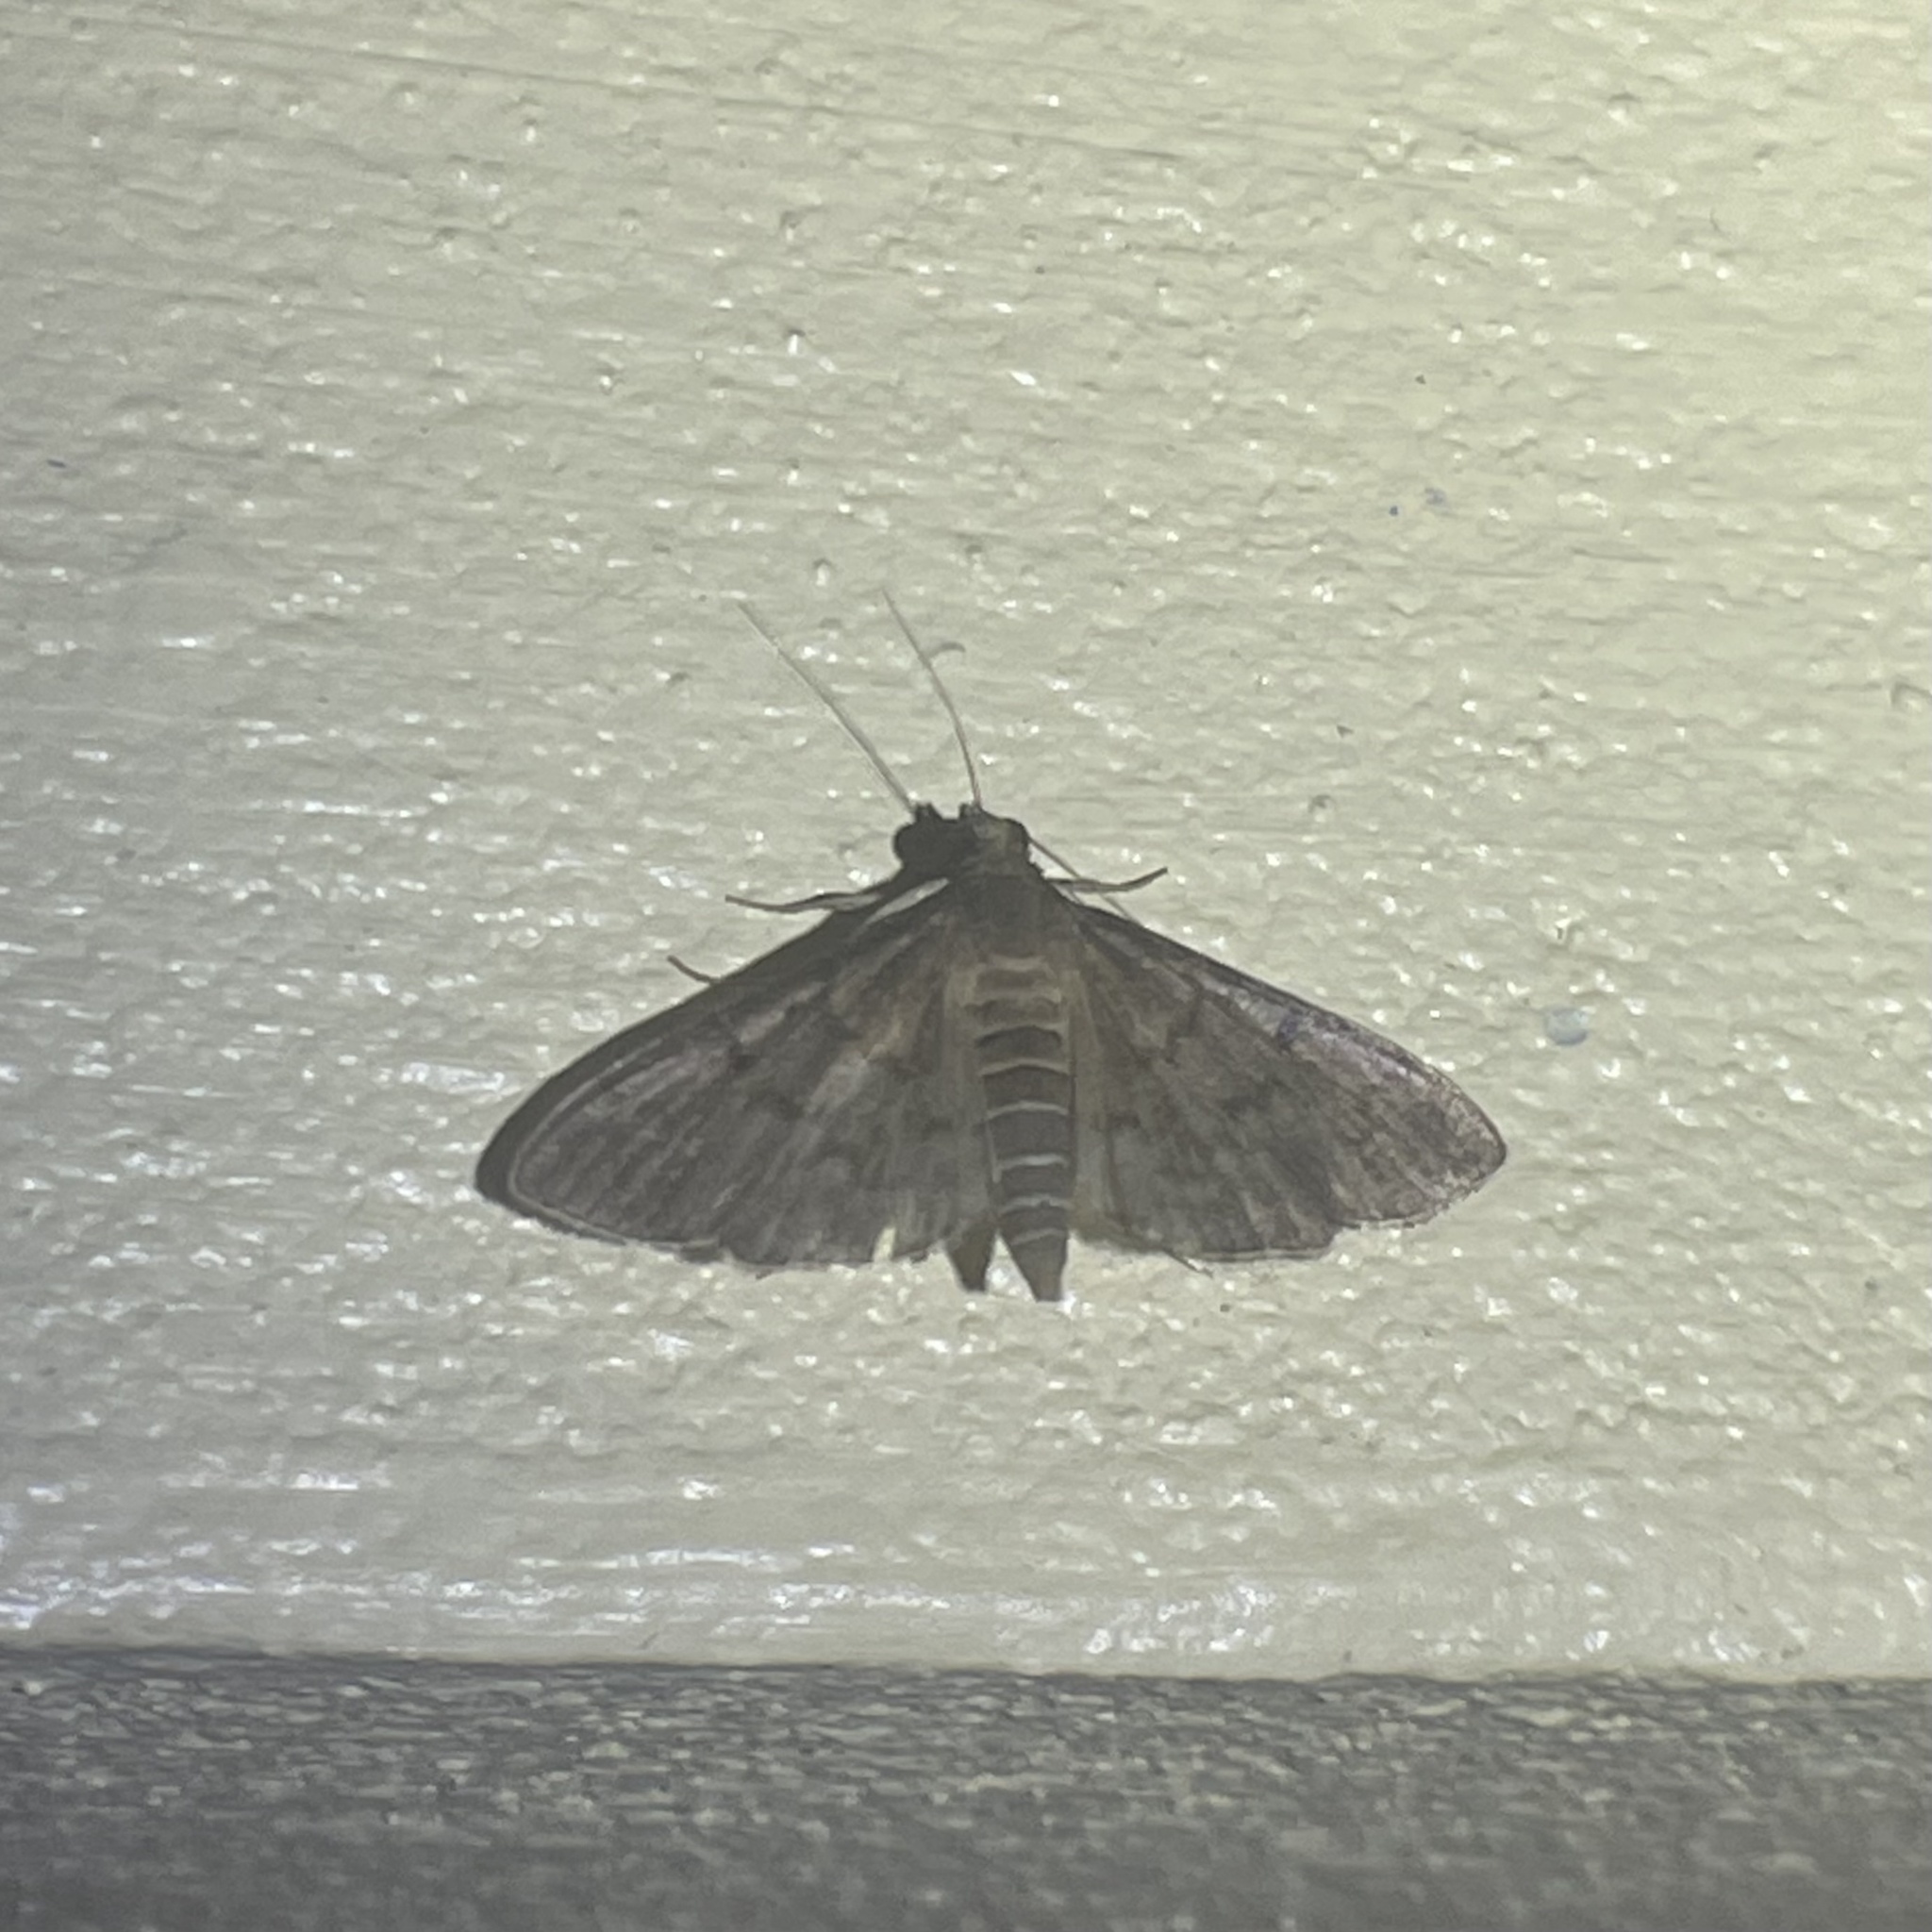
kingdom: Animalia
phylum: Arthropoda
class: Insecta
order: Lepidoptera
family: Crambidae
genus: Herpetogramma
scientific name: Herpetogramma phaeopteralis
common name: Dusky herpetogramma moth
